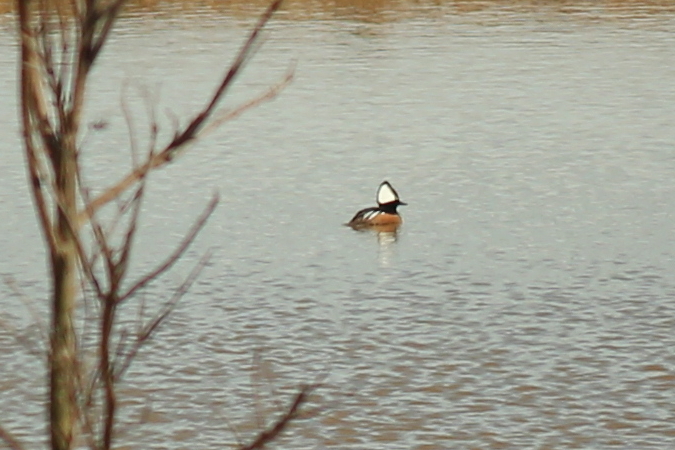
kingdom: Animalia
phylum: Chordata
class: Aves
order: Anseriformes
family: Anatidae
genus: Lophodytes
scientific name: Lophodytes cucullatus
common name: Hooded merganser
